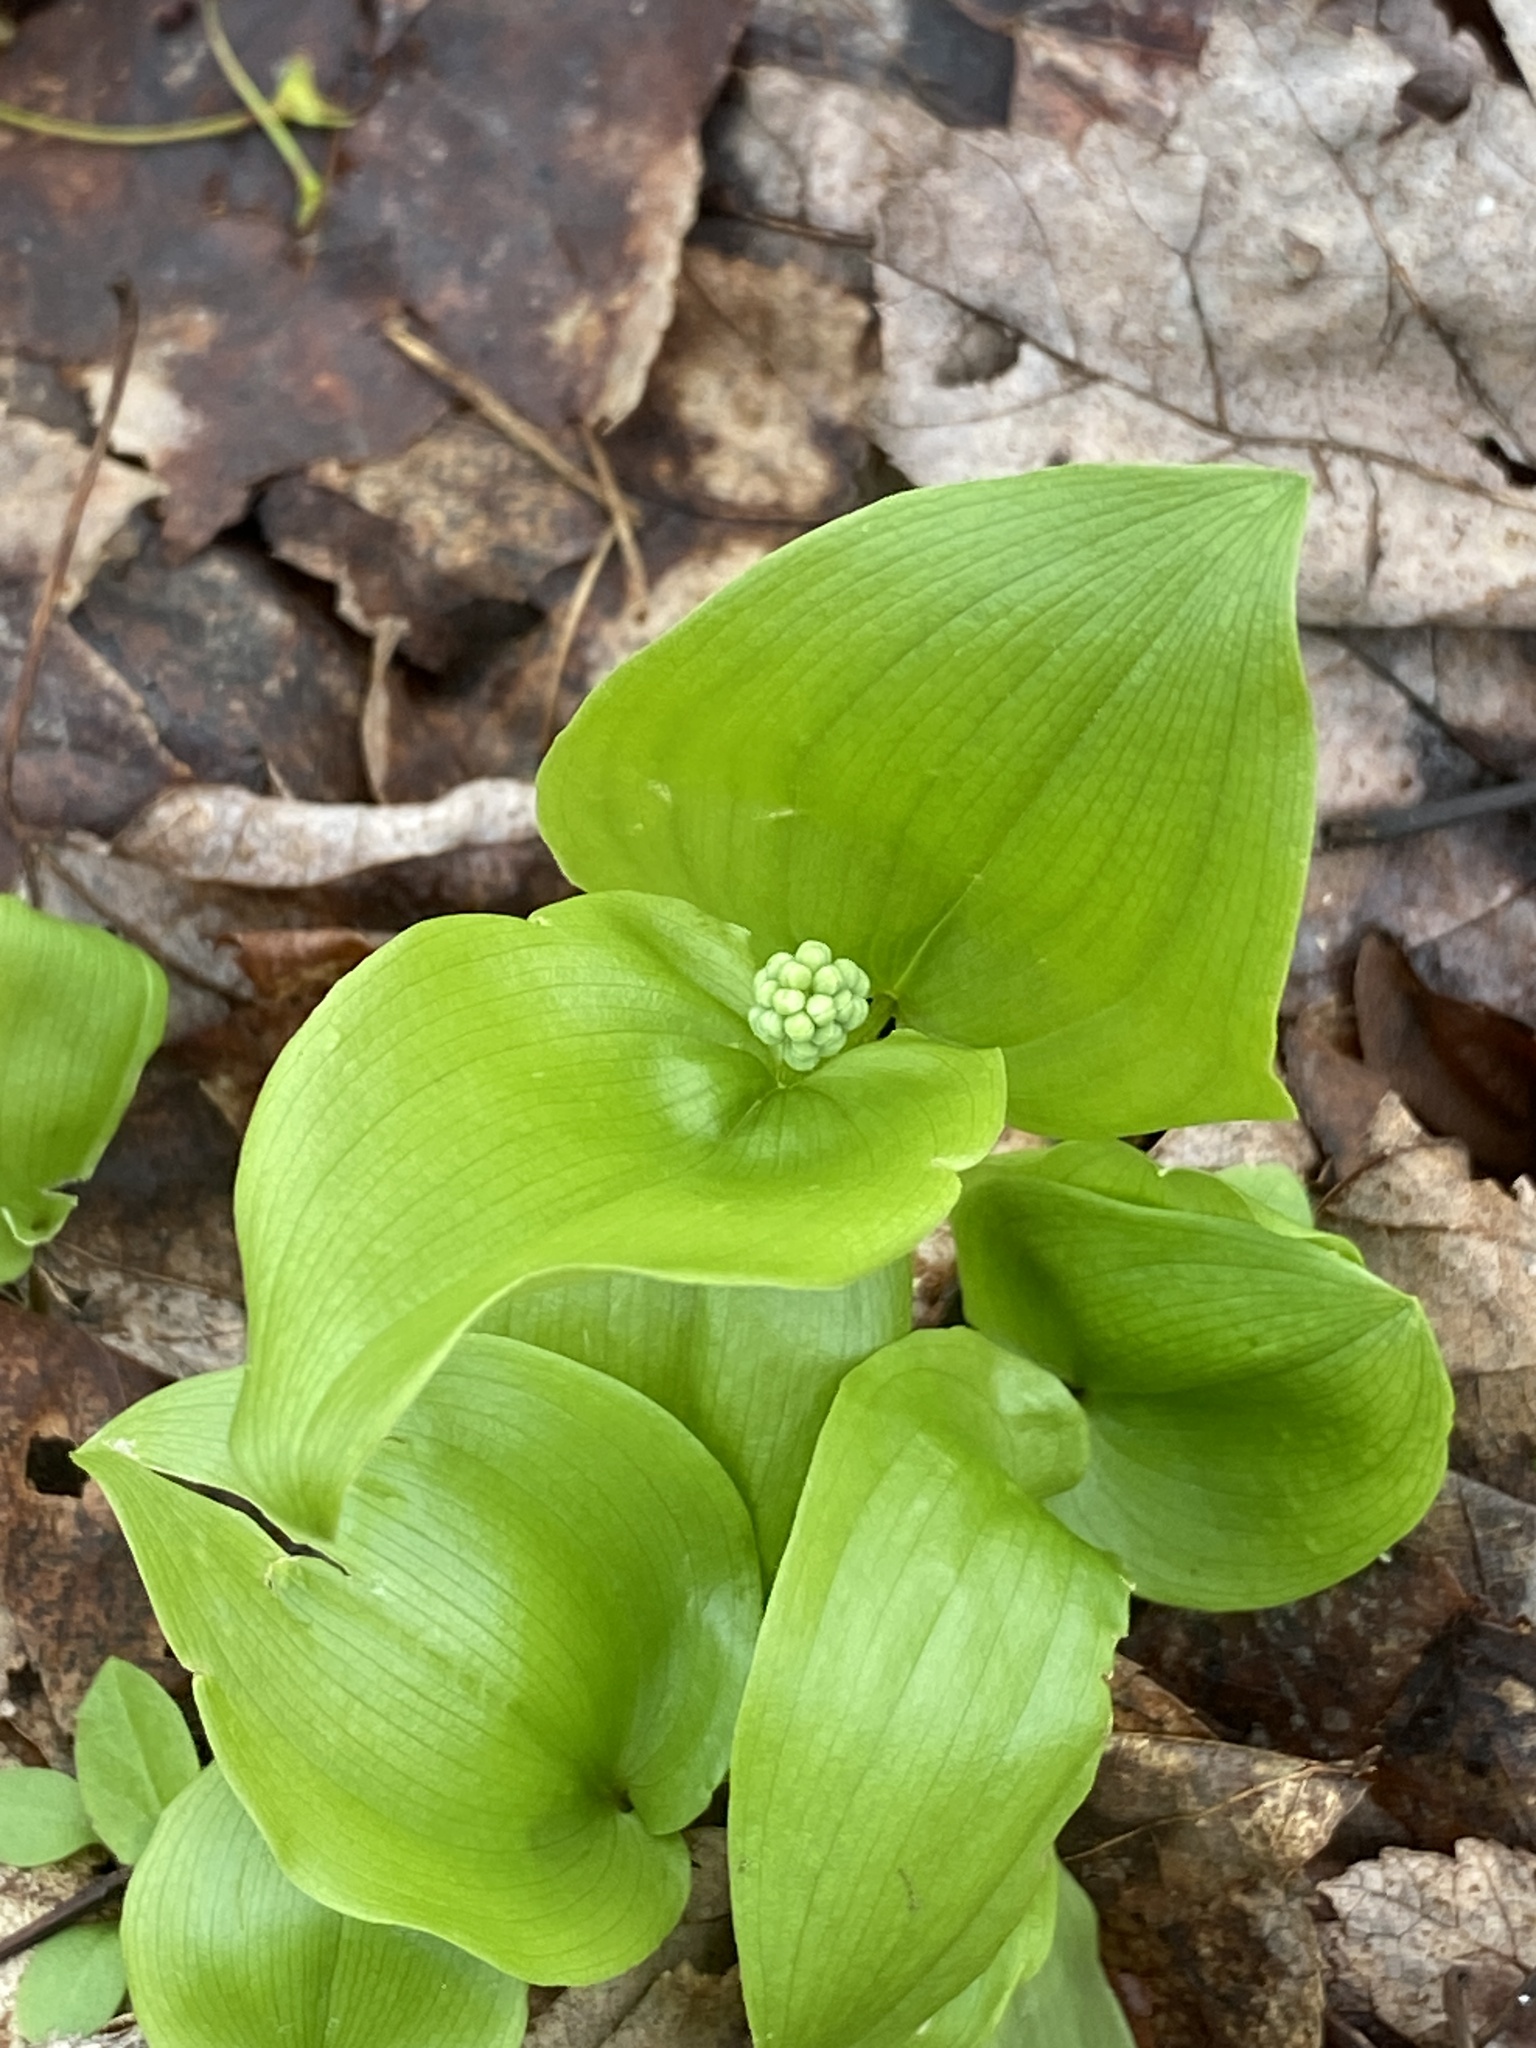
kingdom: Plantae
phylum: Tracheophyta
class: Liliopsida
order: Asparagales
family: Asparagaceae
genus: Maianthemum
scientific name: Maianthemum canadense
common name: False lily-of-the-valley
